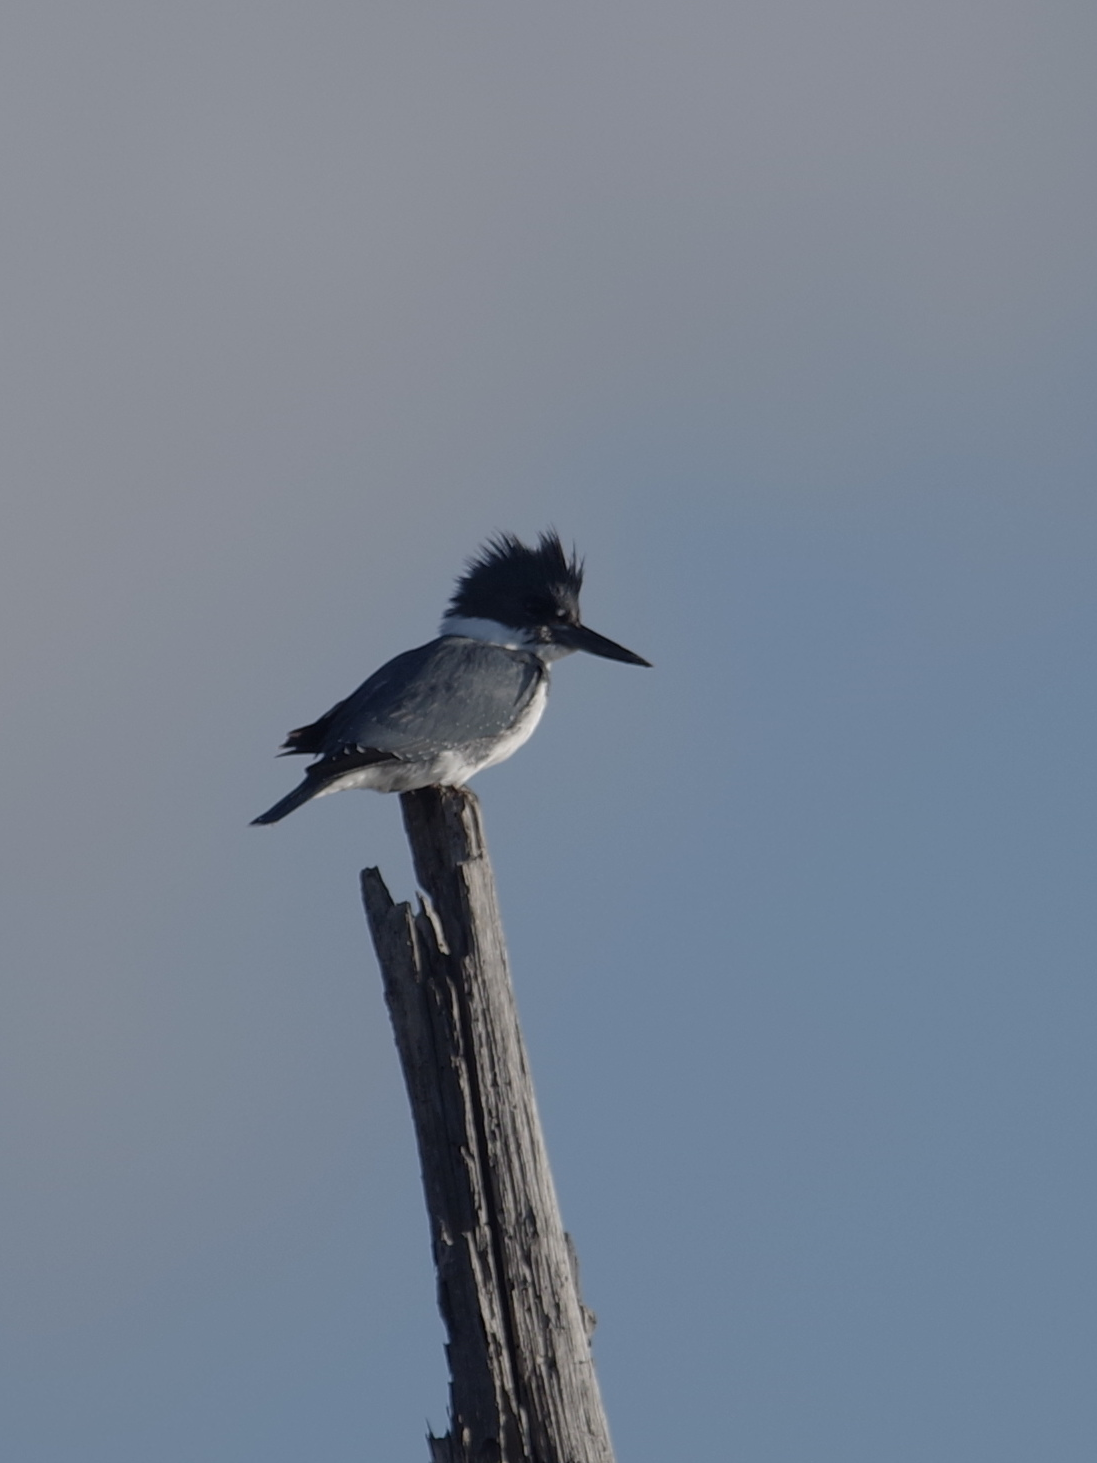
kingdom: Animalia
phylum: Chordata
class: Aves
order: Coraciiformes
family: Alcedinidae
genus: Megaceryle
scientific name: Megaceryle alcyon
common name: Belted kingfisher
